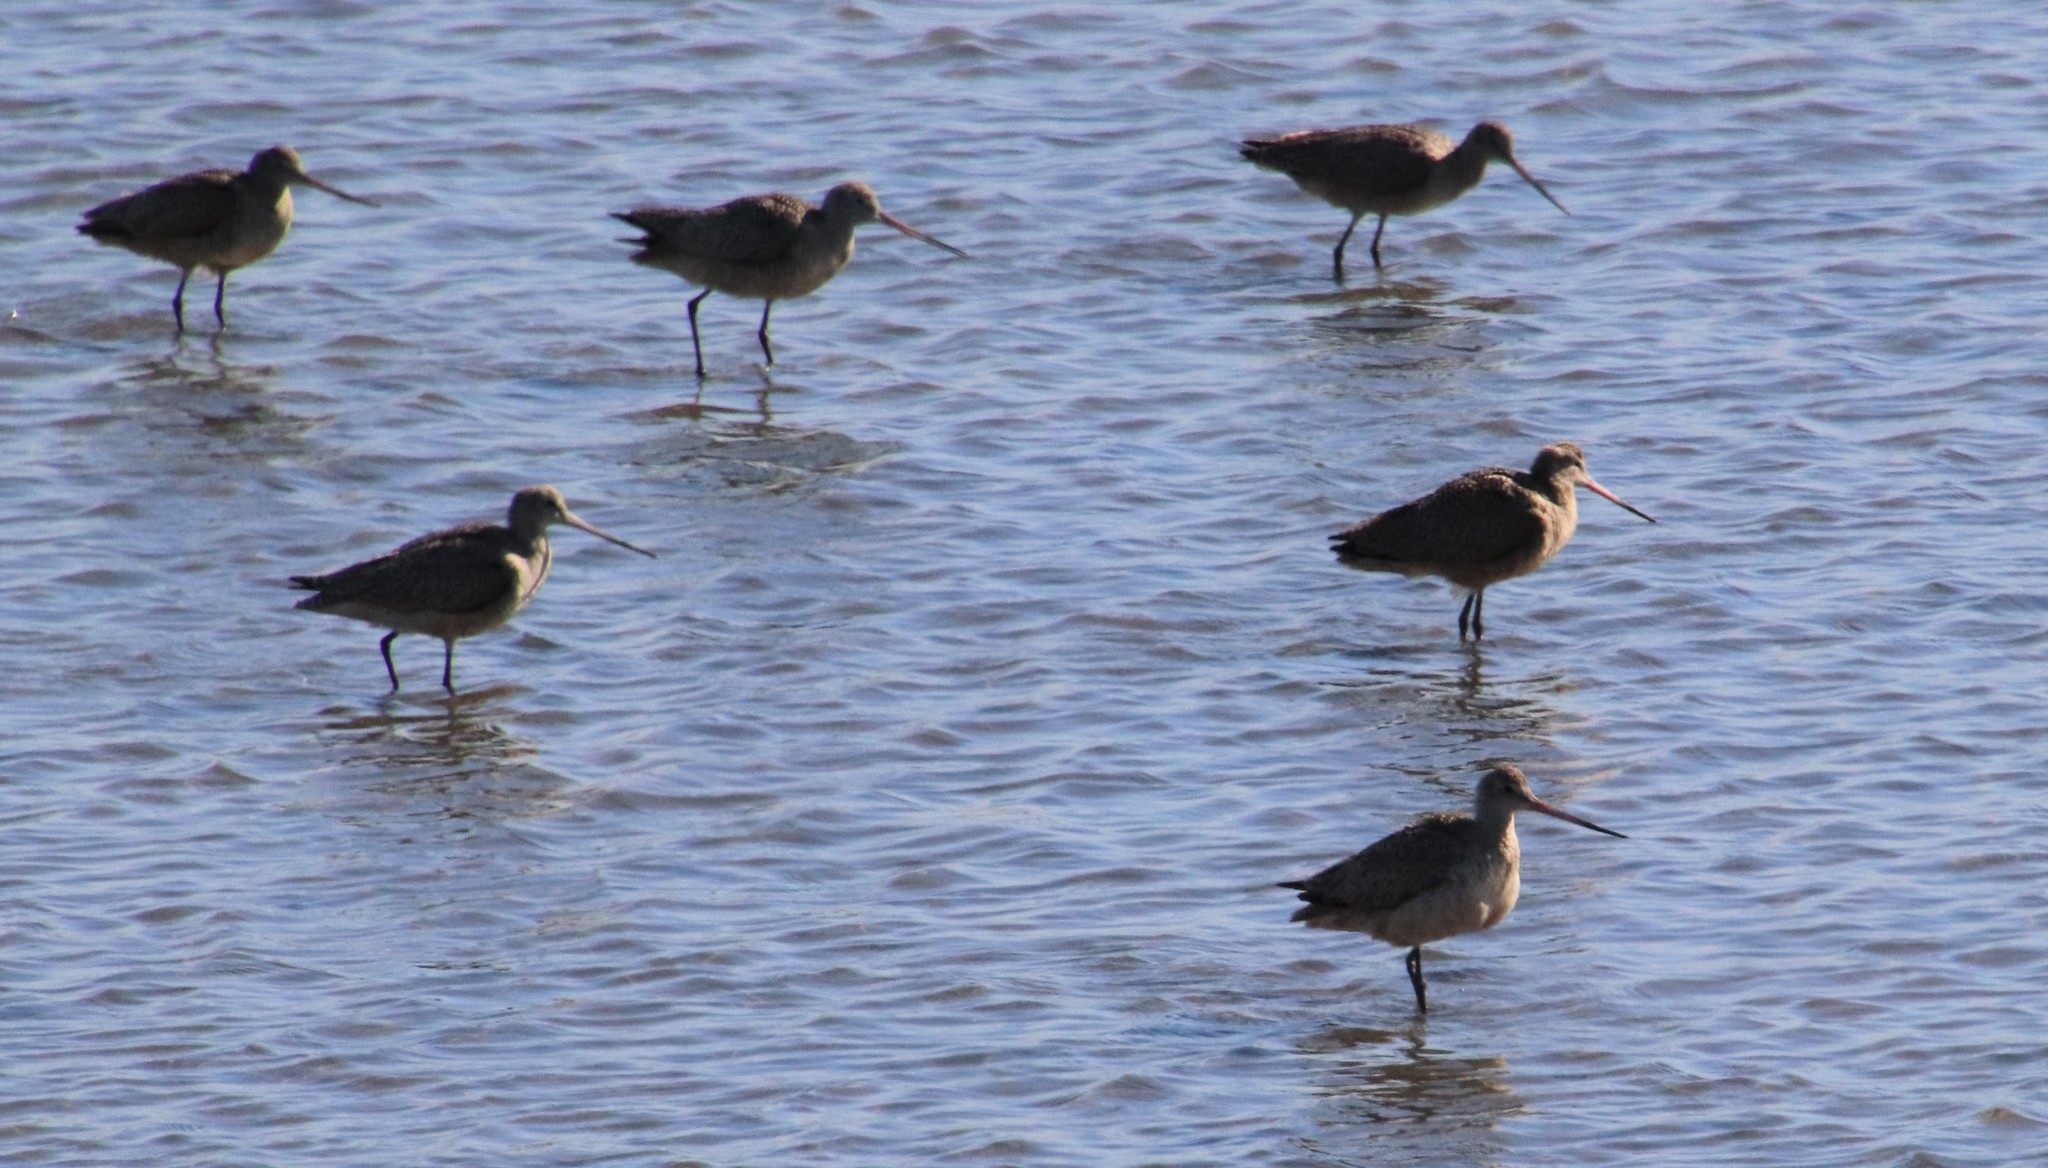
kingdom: Animalia
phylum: Chordata
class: Aves
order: Charadriiformes
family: Scolopacidae
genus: Limosa
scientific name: Limosa fedoa
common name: Marbled godwit
